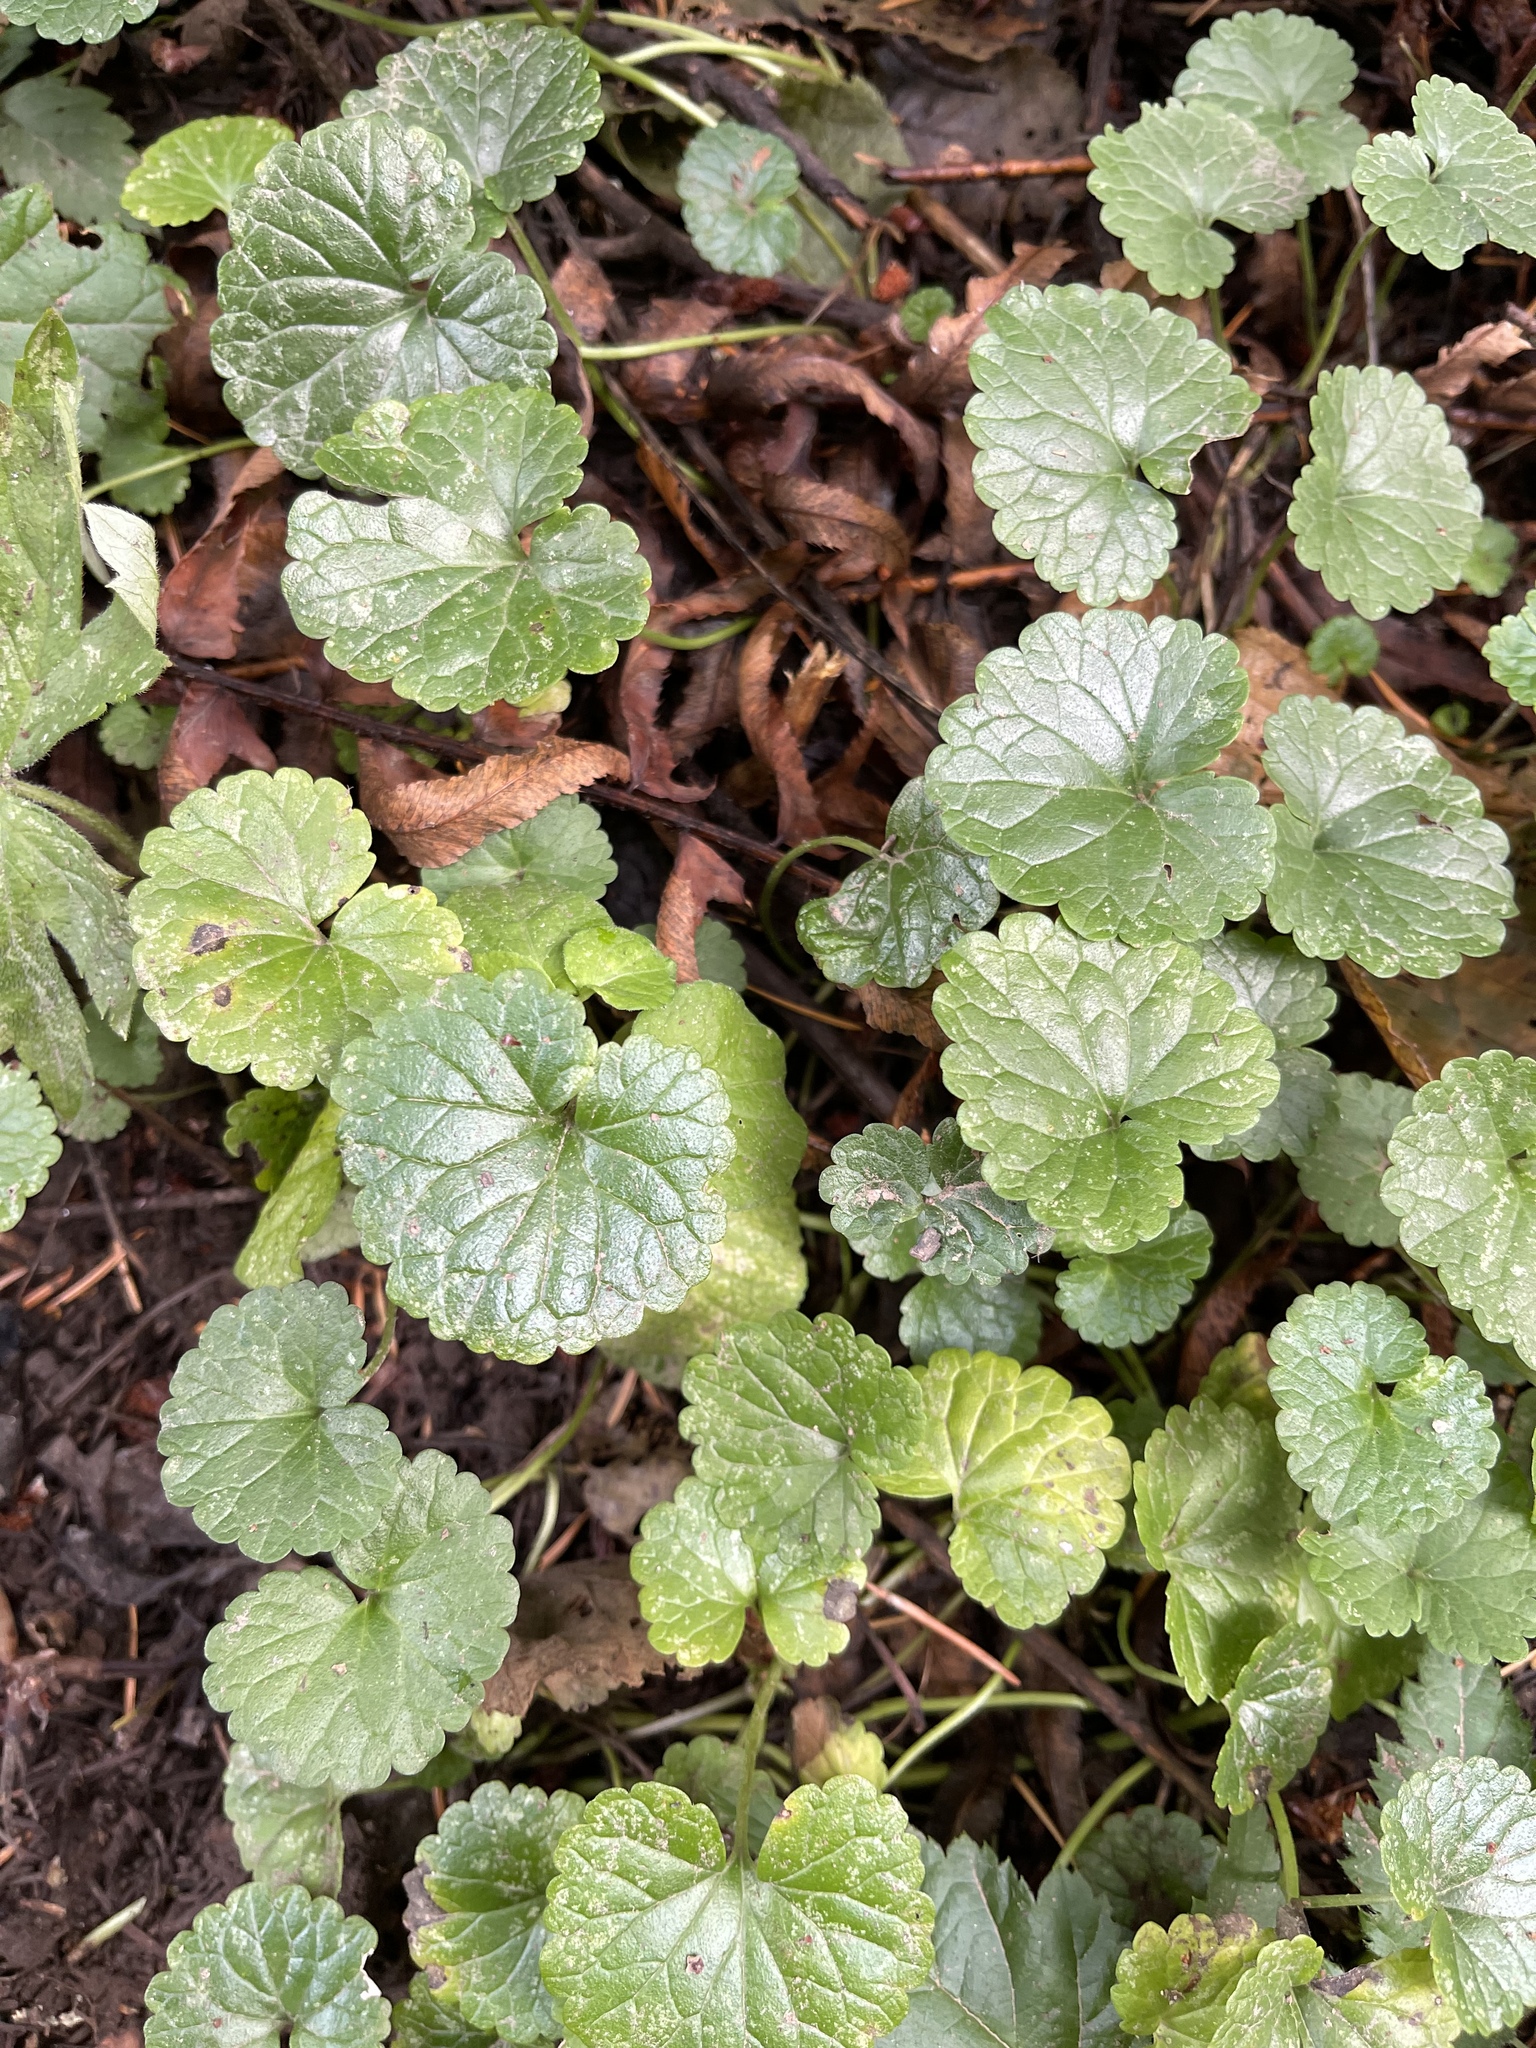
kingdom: Plantae
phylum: Tracheophyta
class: Magnoliopsida
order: Lamiales
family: Lamiaceae
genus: Glechoma
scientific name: Glechoma hederacea
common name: Ground ivy
